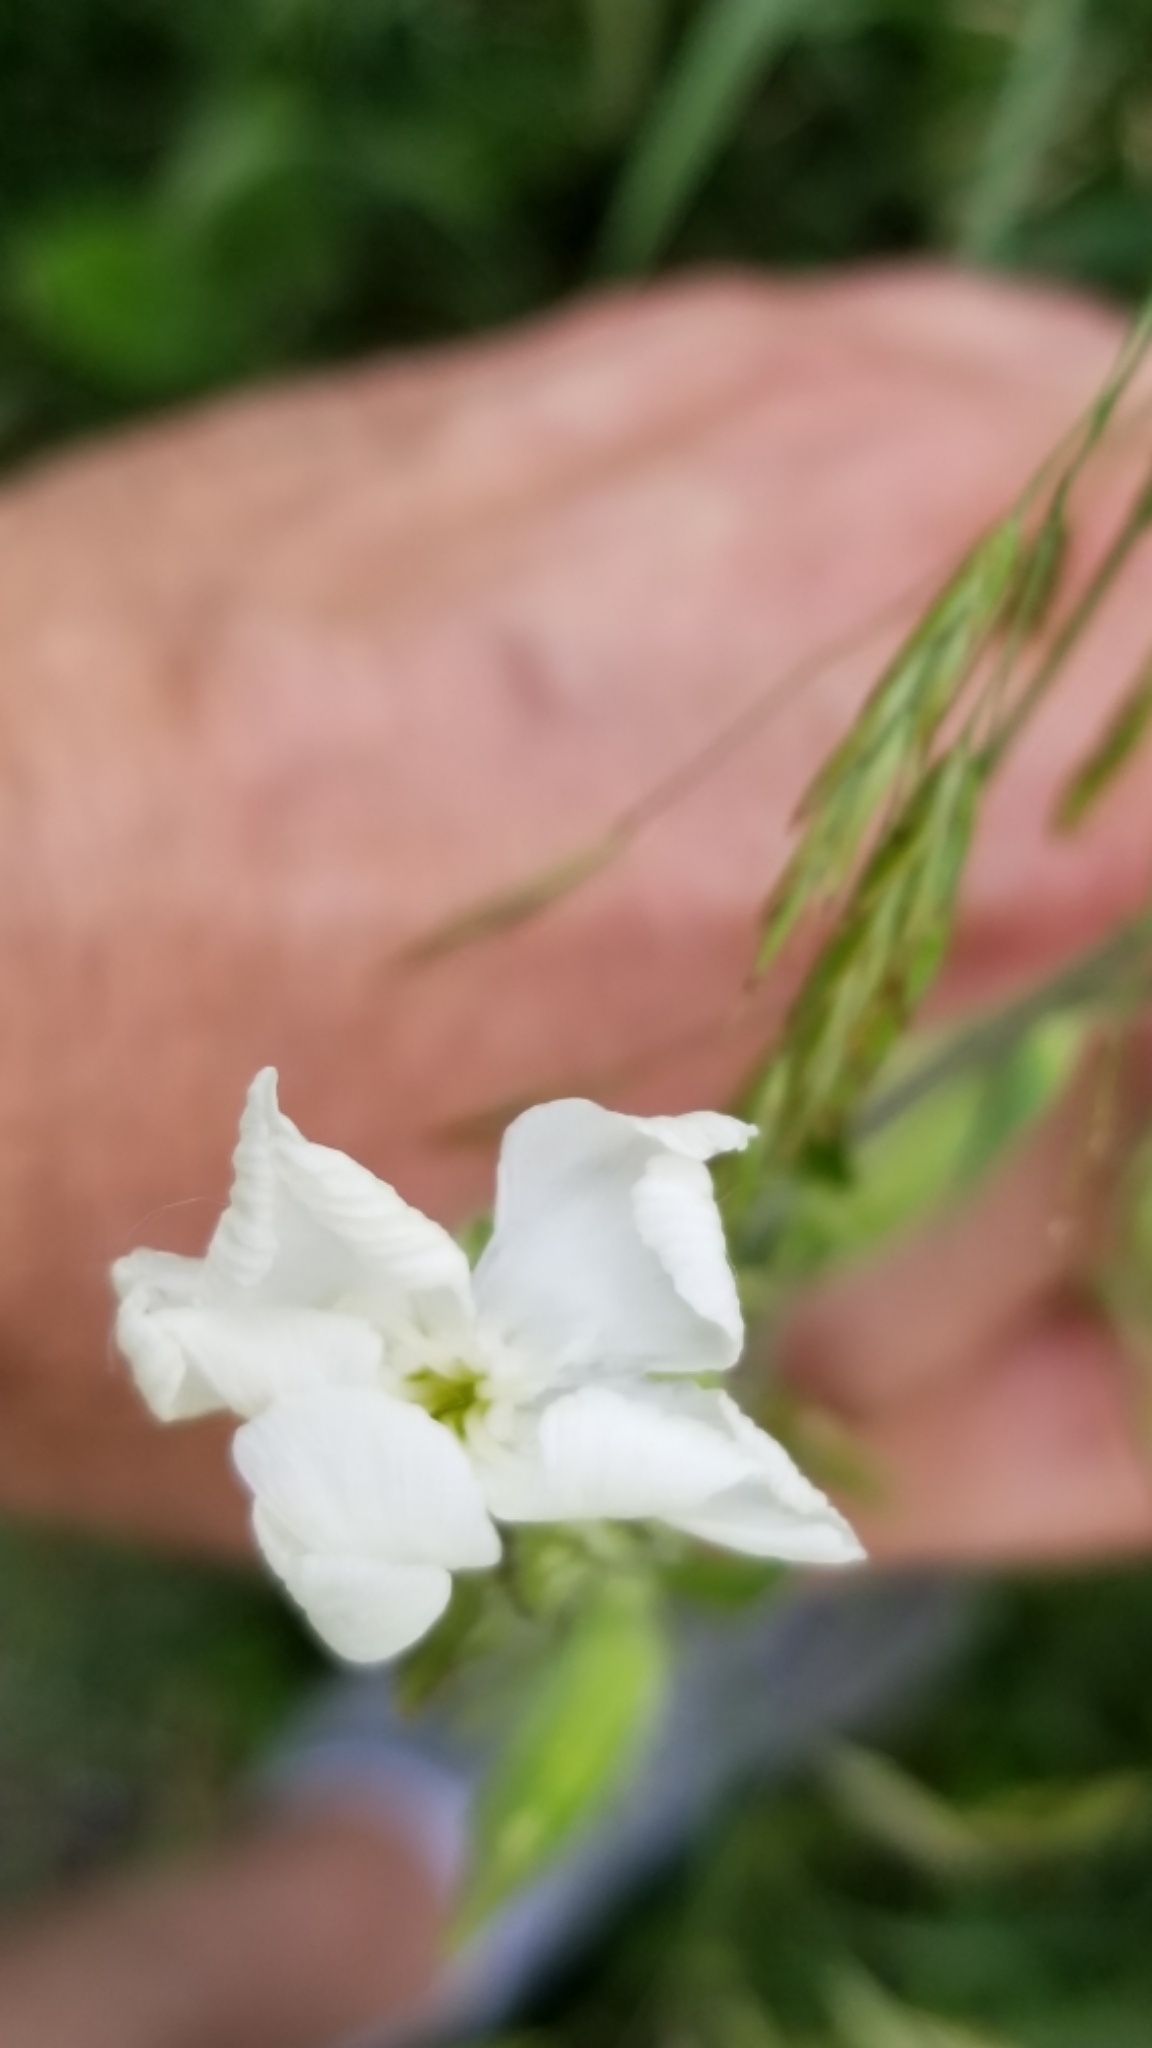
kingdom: Plantae
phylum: Tracheophyta
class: Magnoliopsida
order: Caryophyllales
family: Caryophyllaceae
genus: Silene
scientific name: Silene latifolia
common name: White campion
